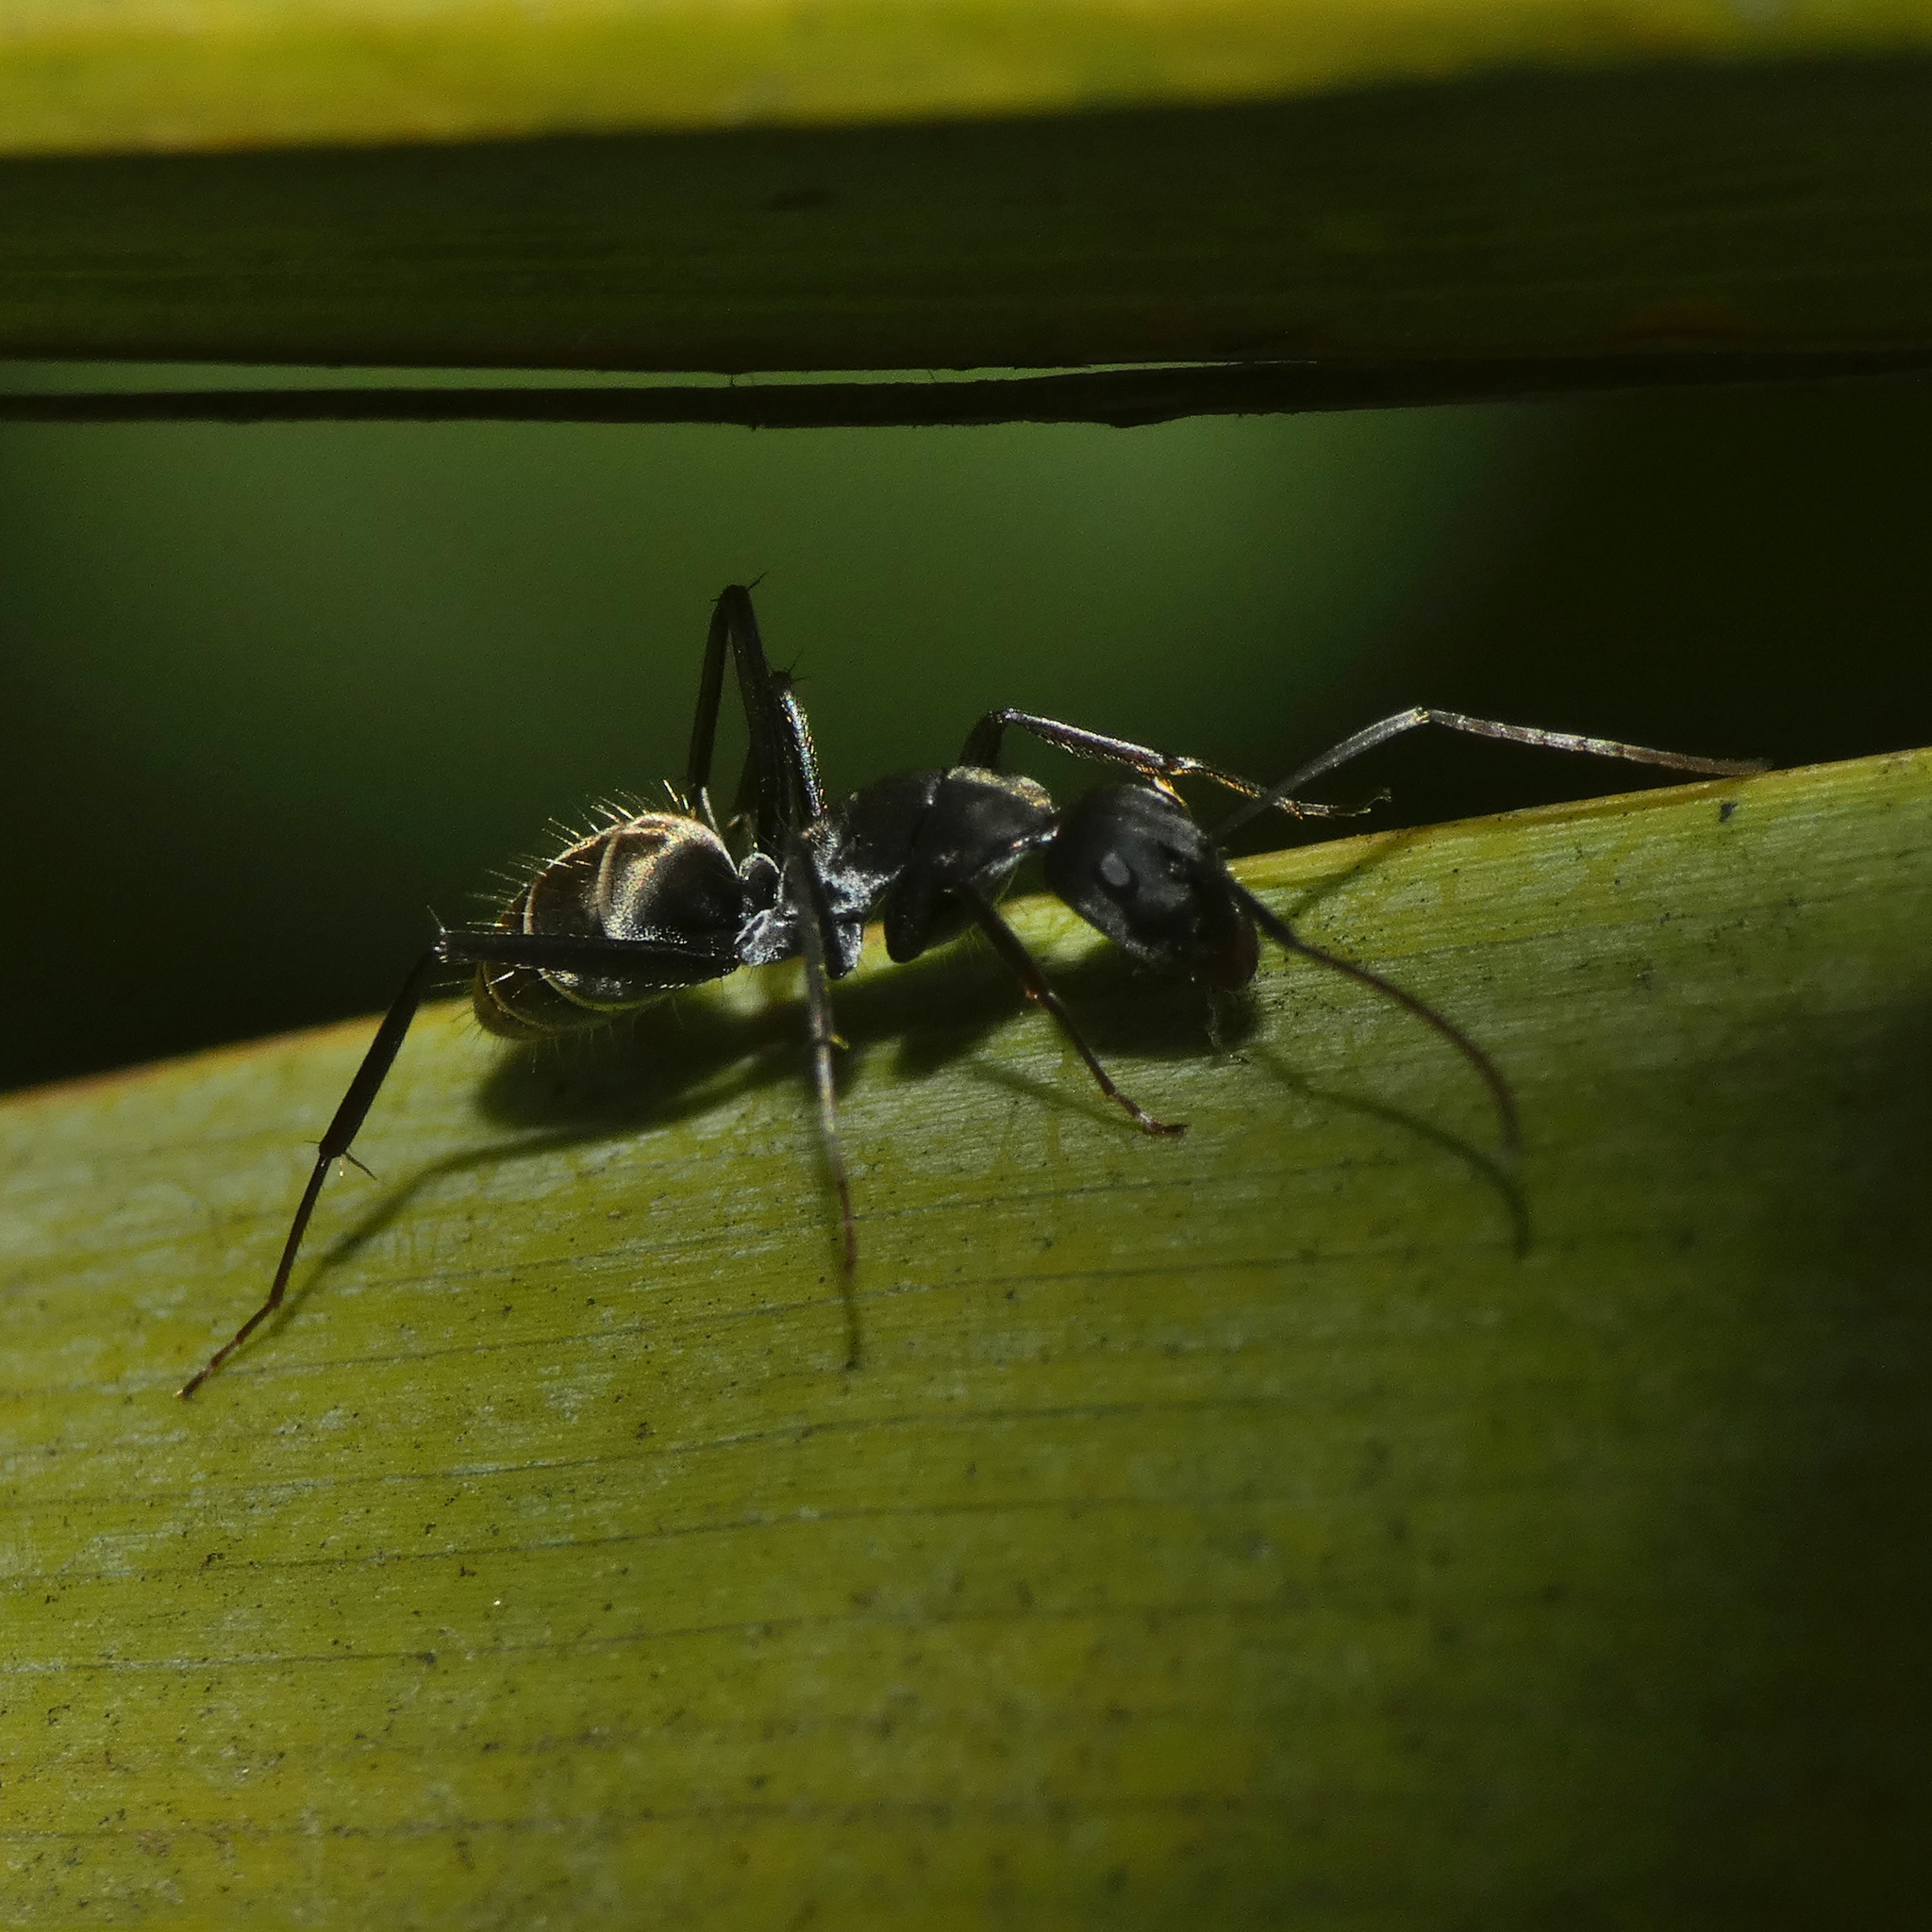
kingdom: Animalia
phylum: Arthropoda
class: Insecta
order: Hymenoptera
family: Formicidae
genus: Camponotus
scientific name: Camponotus cinctellus
